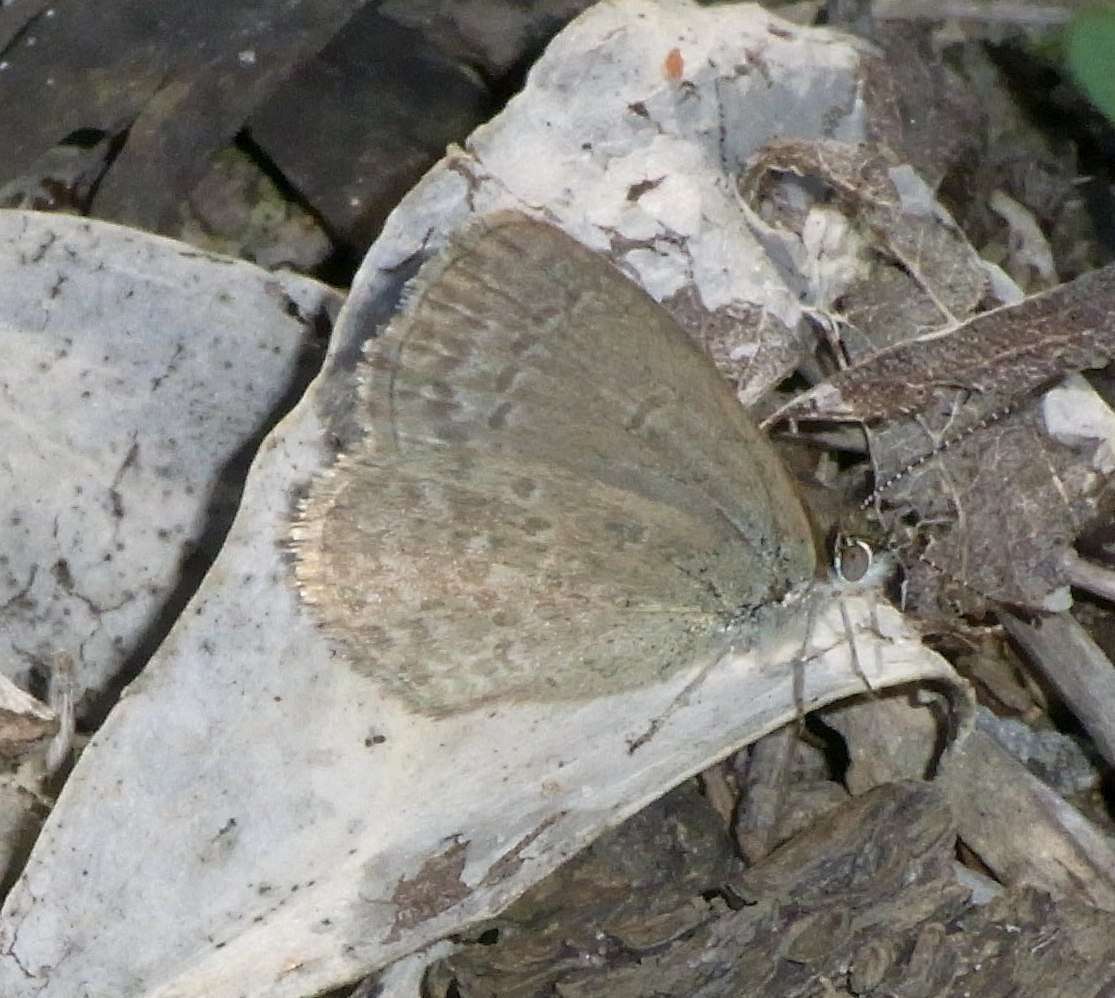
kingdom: Animalia
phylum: Arthropoda
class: Insecta
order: Lepidoptera
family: Lycaenidae
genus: Zizina
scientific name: Zizina labradus
